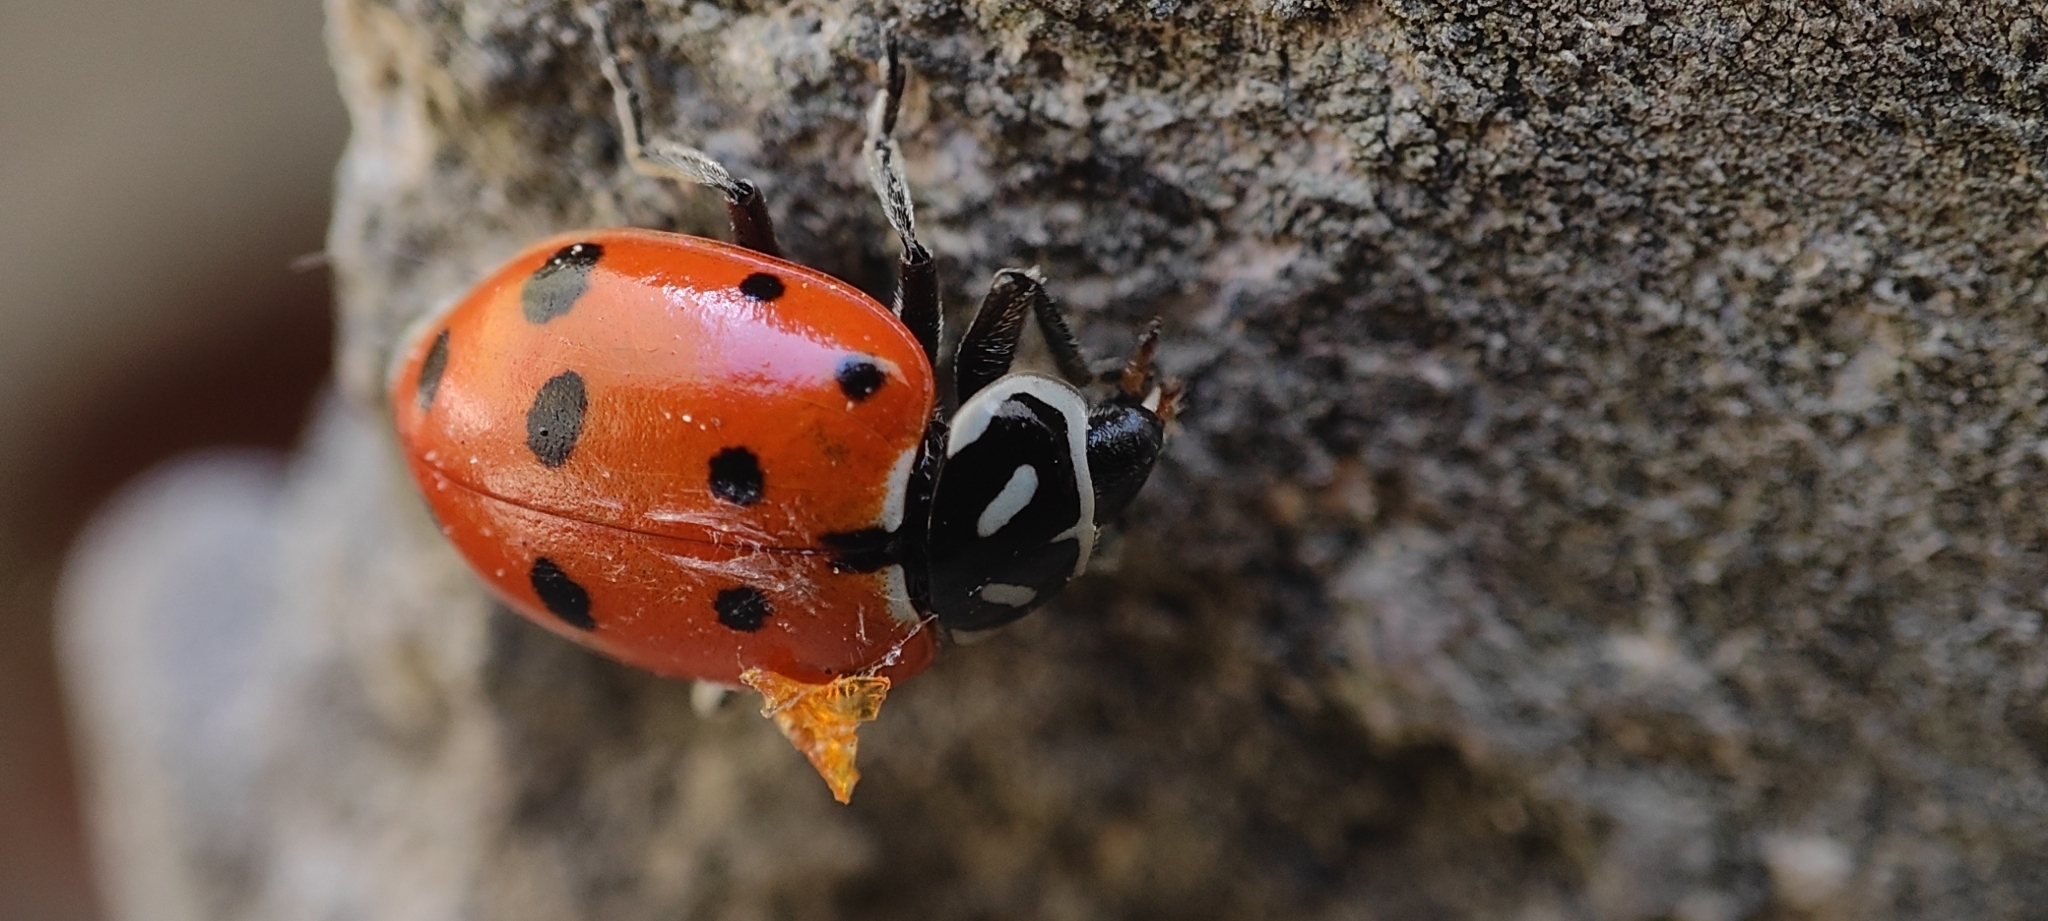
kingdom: Animalia
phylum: Arthropoda
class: Insecta
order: Coleoptera
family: Coccinellidae
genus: Hippodamia
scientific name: Hippodamia convergens
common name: Convergent lady beetle
